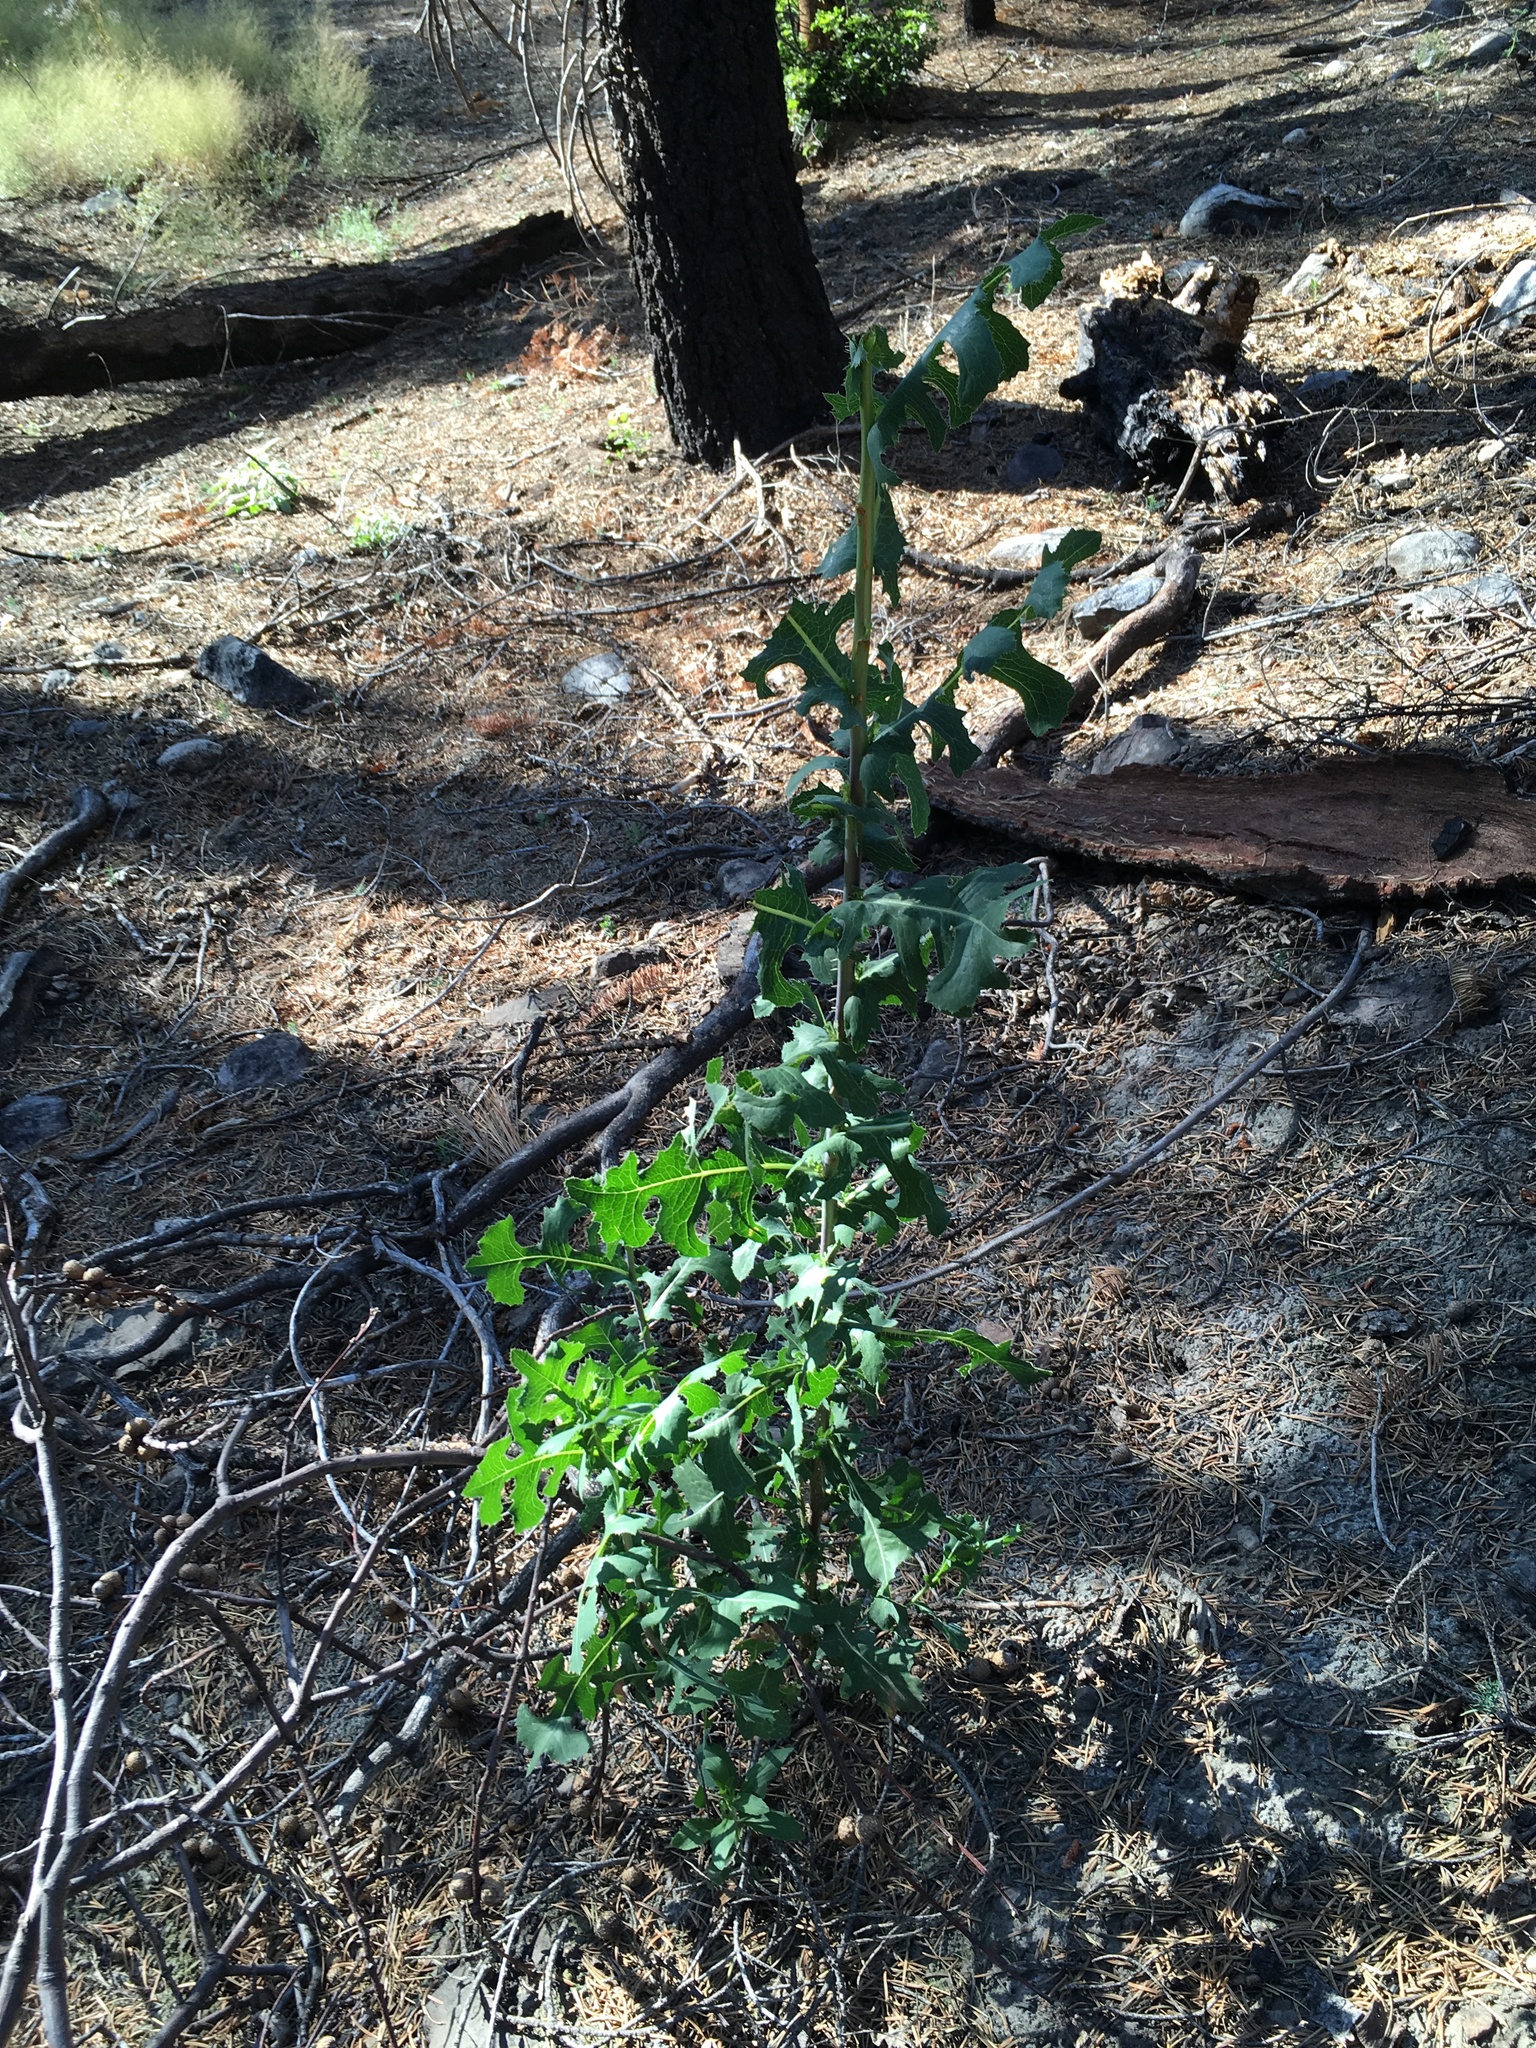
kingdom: Plantae
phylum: Tracheophyta
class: Magnoliopsida
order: Asterales
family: Asteraceae
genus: Lactuca
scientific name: Lactuca serriola
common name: Prickly lettuce
